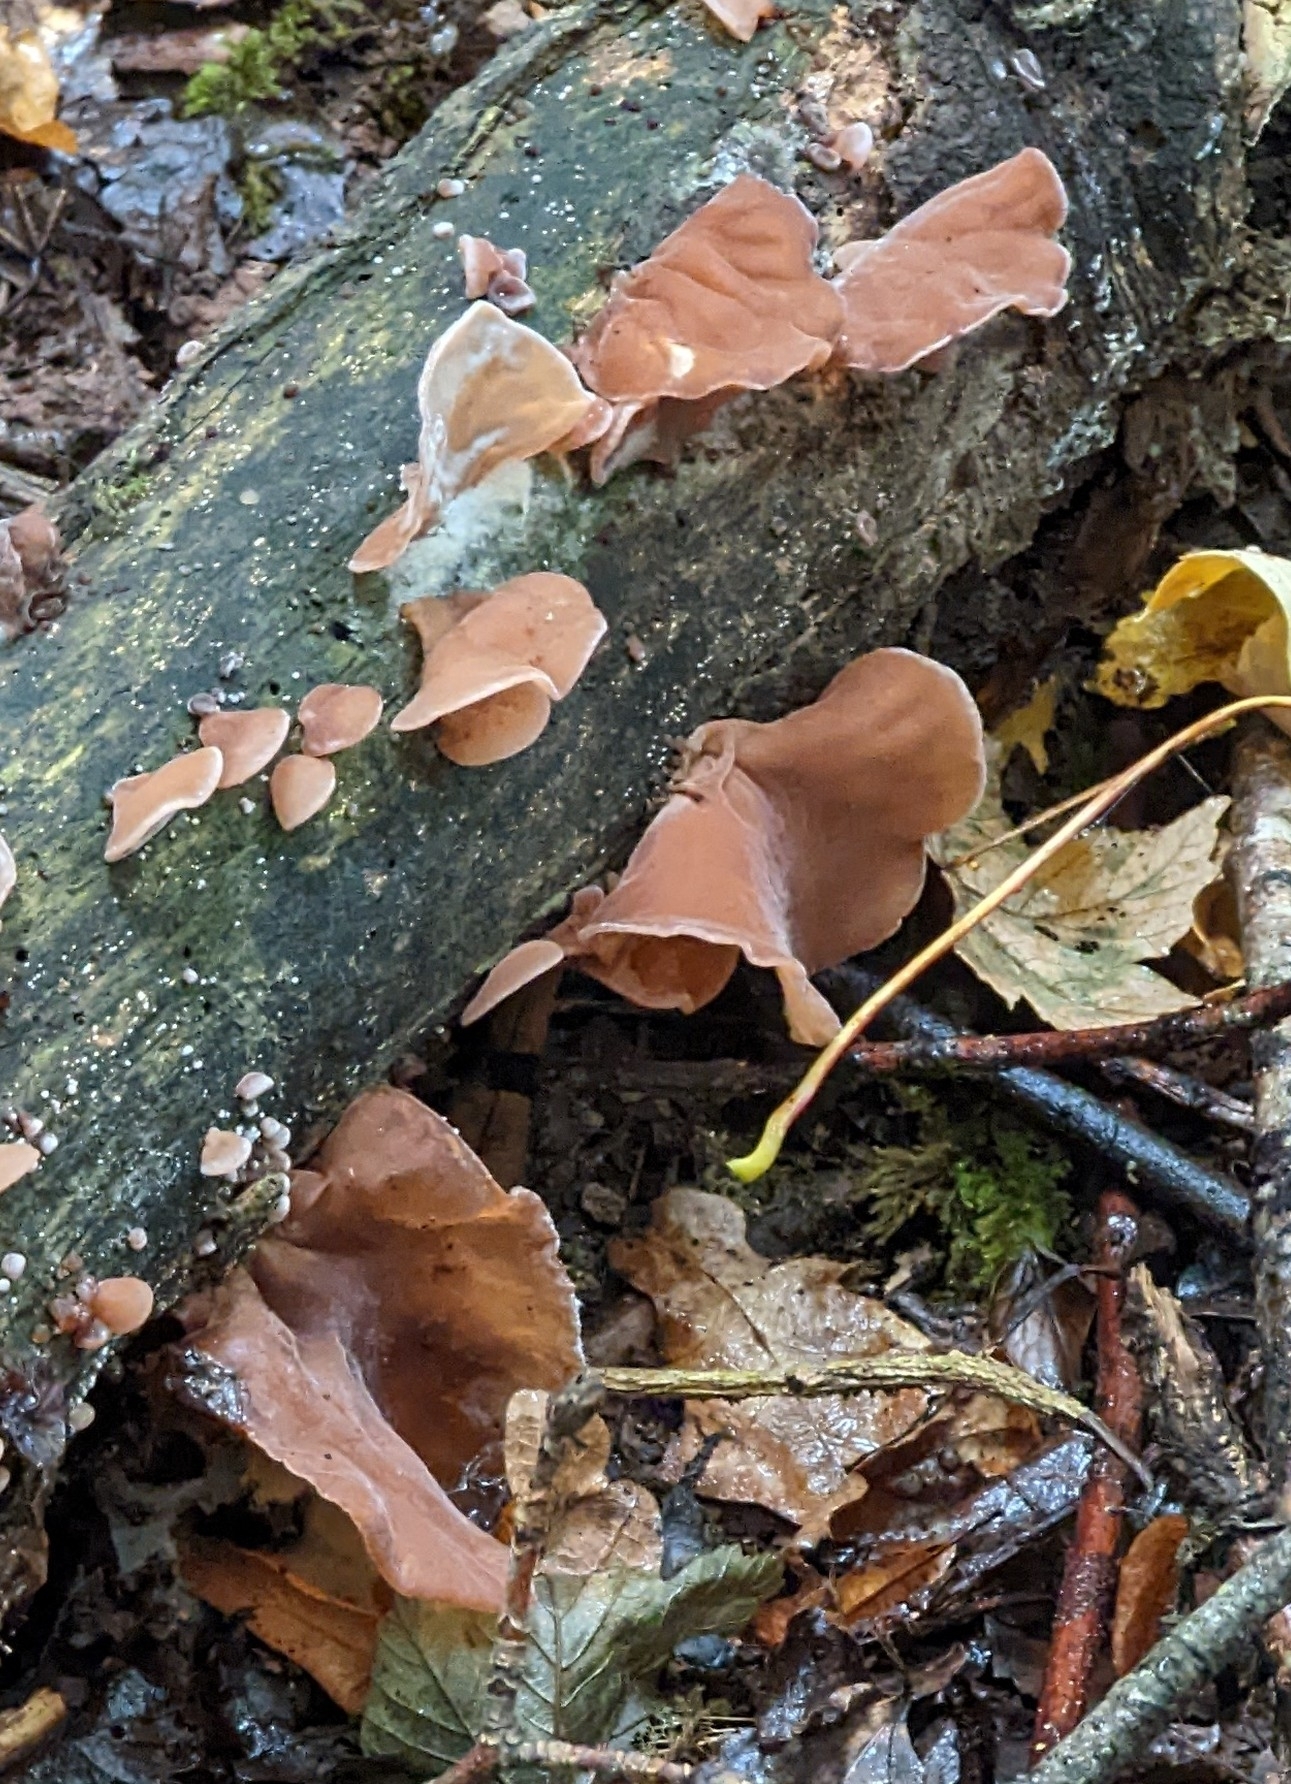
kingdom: Fungi
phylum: Basidiomycota
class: Agaricomycetes
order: Auriculariales
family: Auriculariaceae
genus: Auricularia
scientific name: Auricularia auricula-judae
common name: Jelly ear
